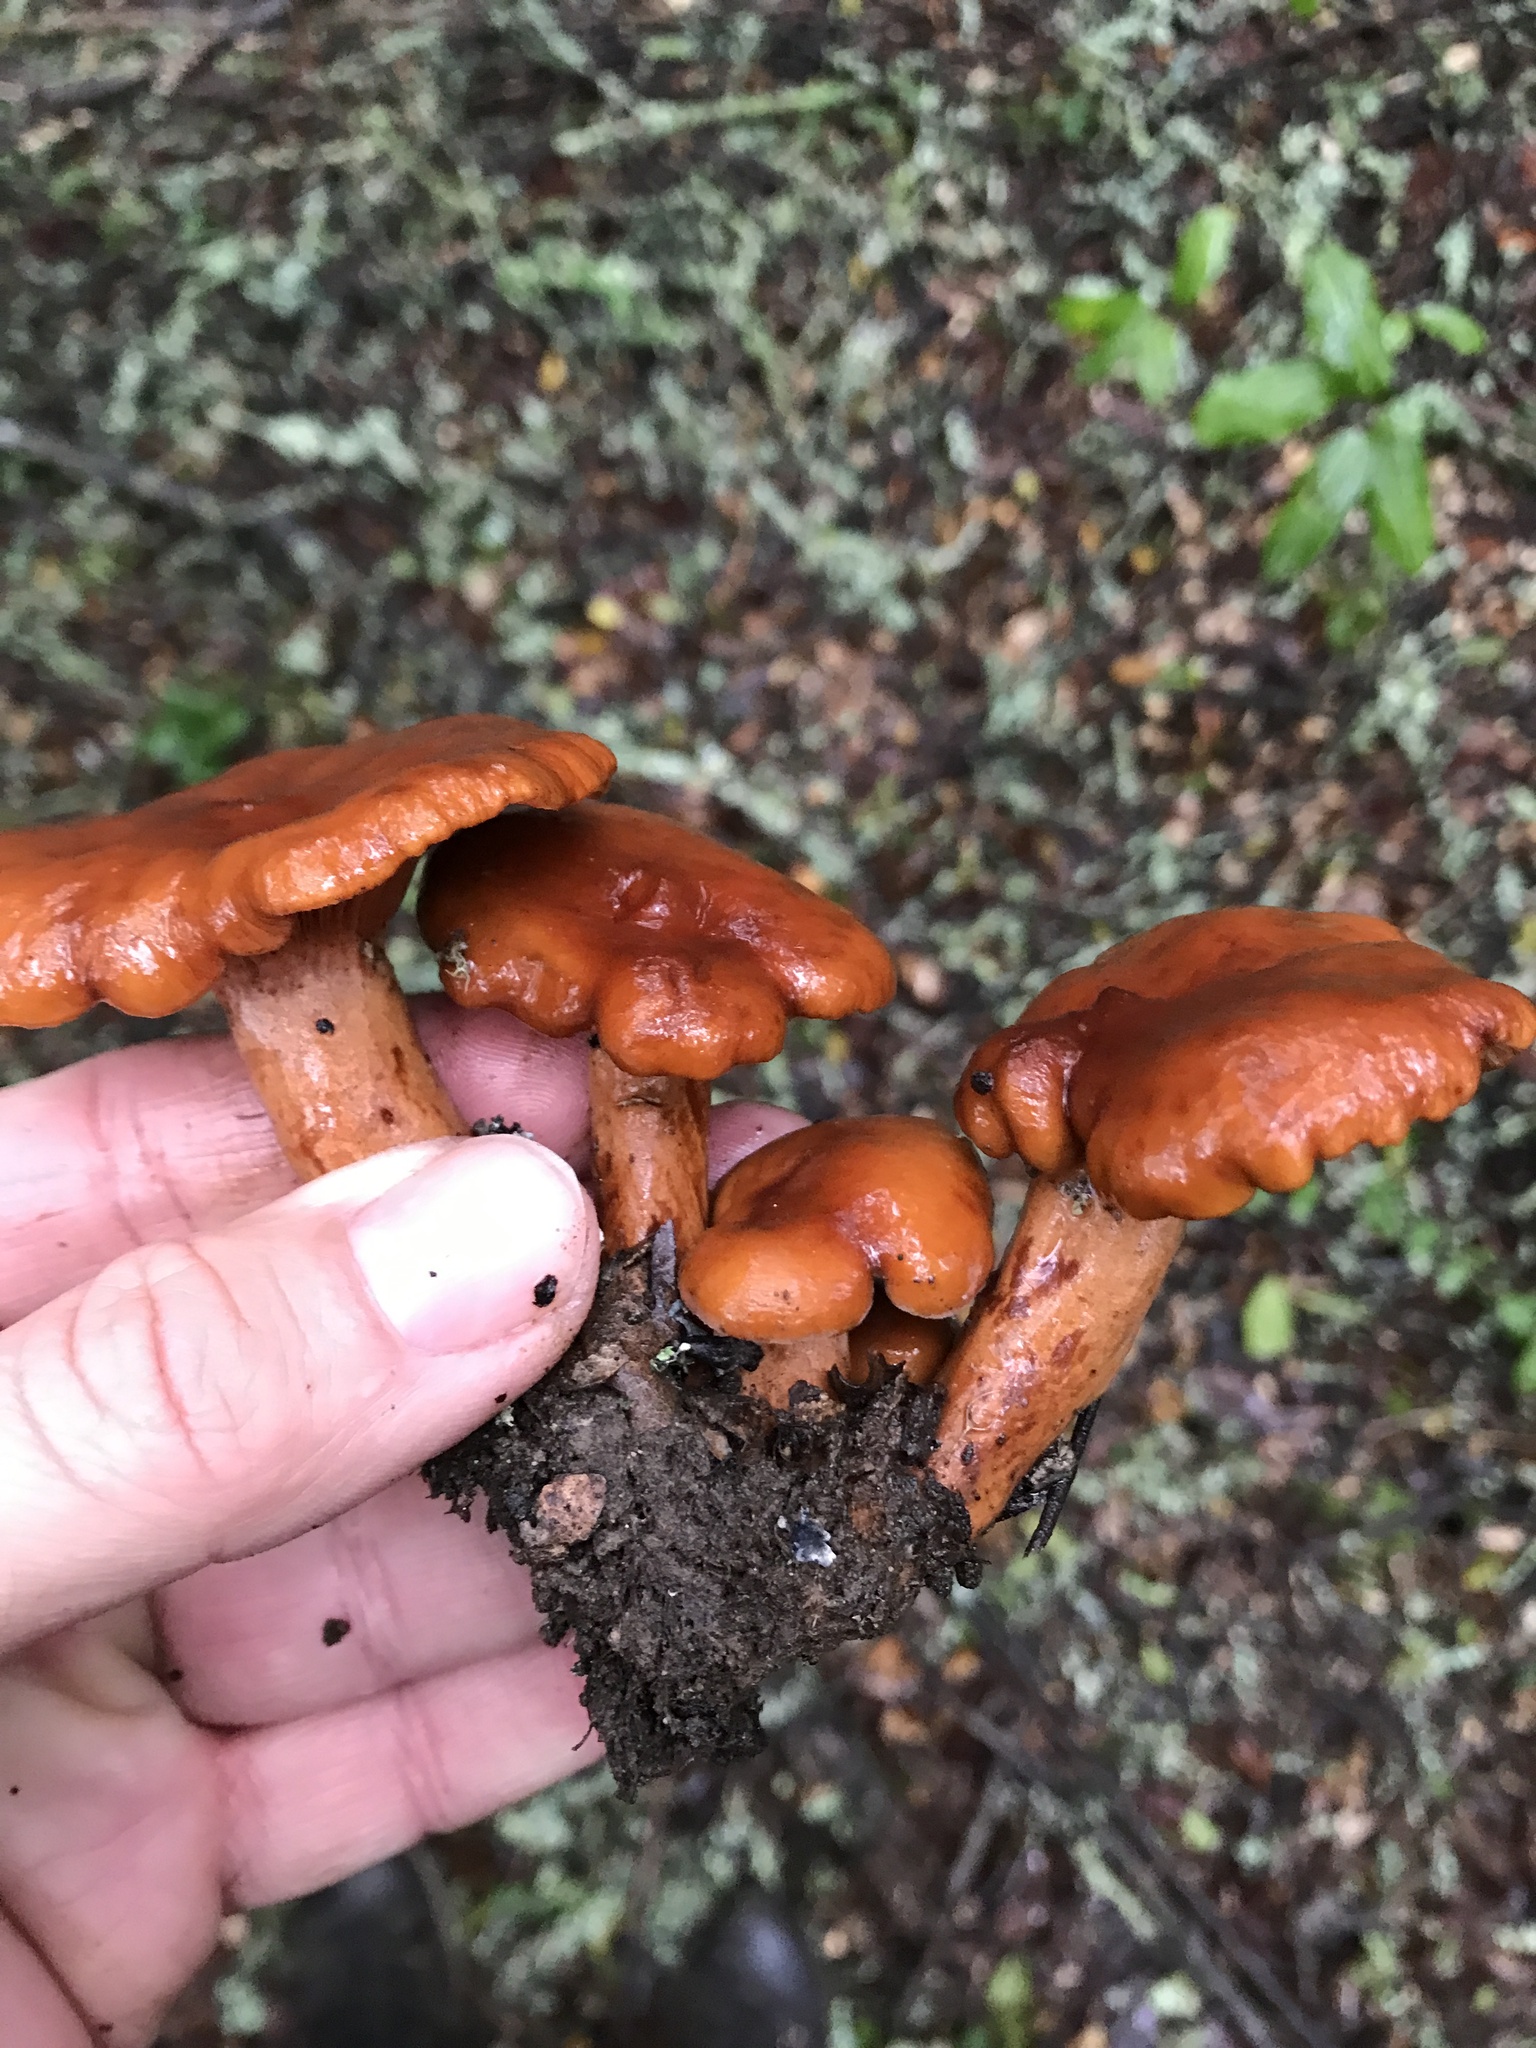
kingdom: Fungi
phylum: Basidiomycota
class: Agaricomycetes
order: Russulales
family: Russulaceae
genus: Lactarius
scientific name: Lactarius rufulus
